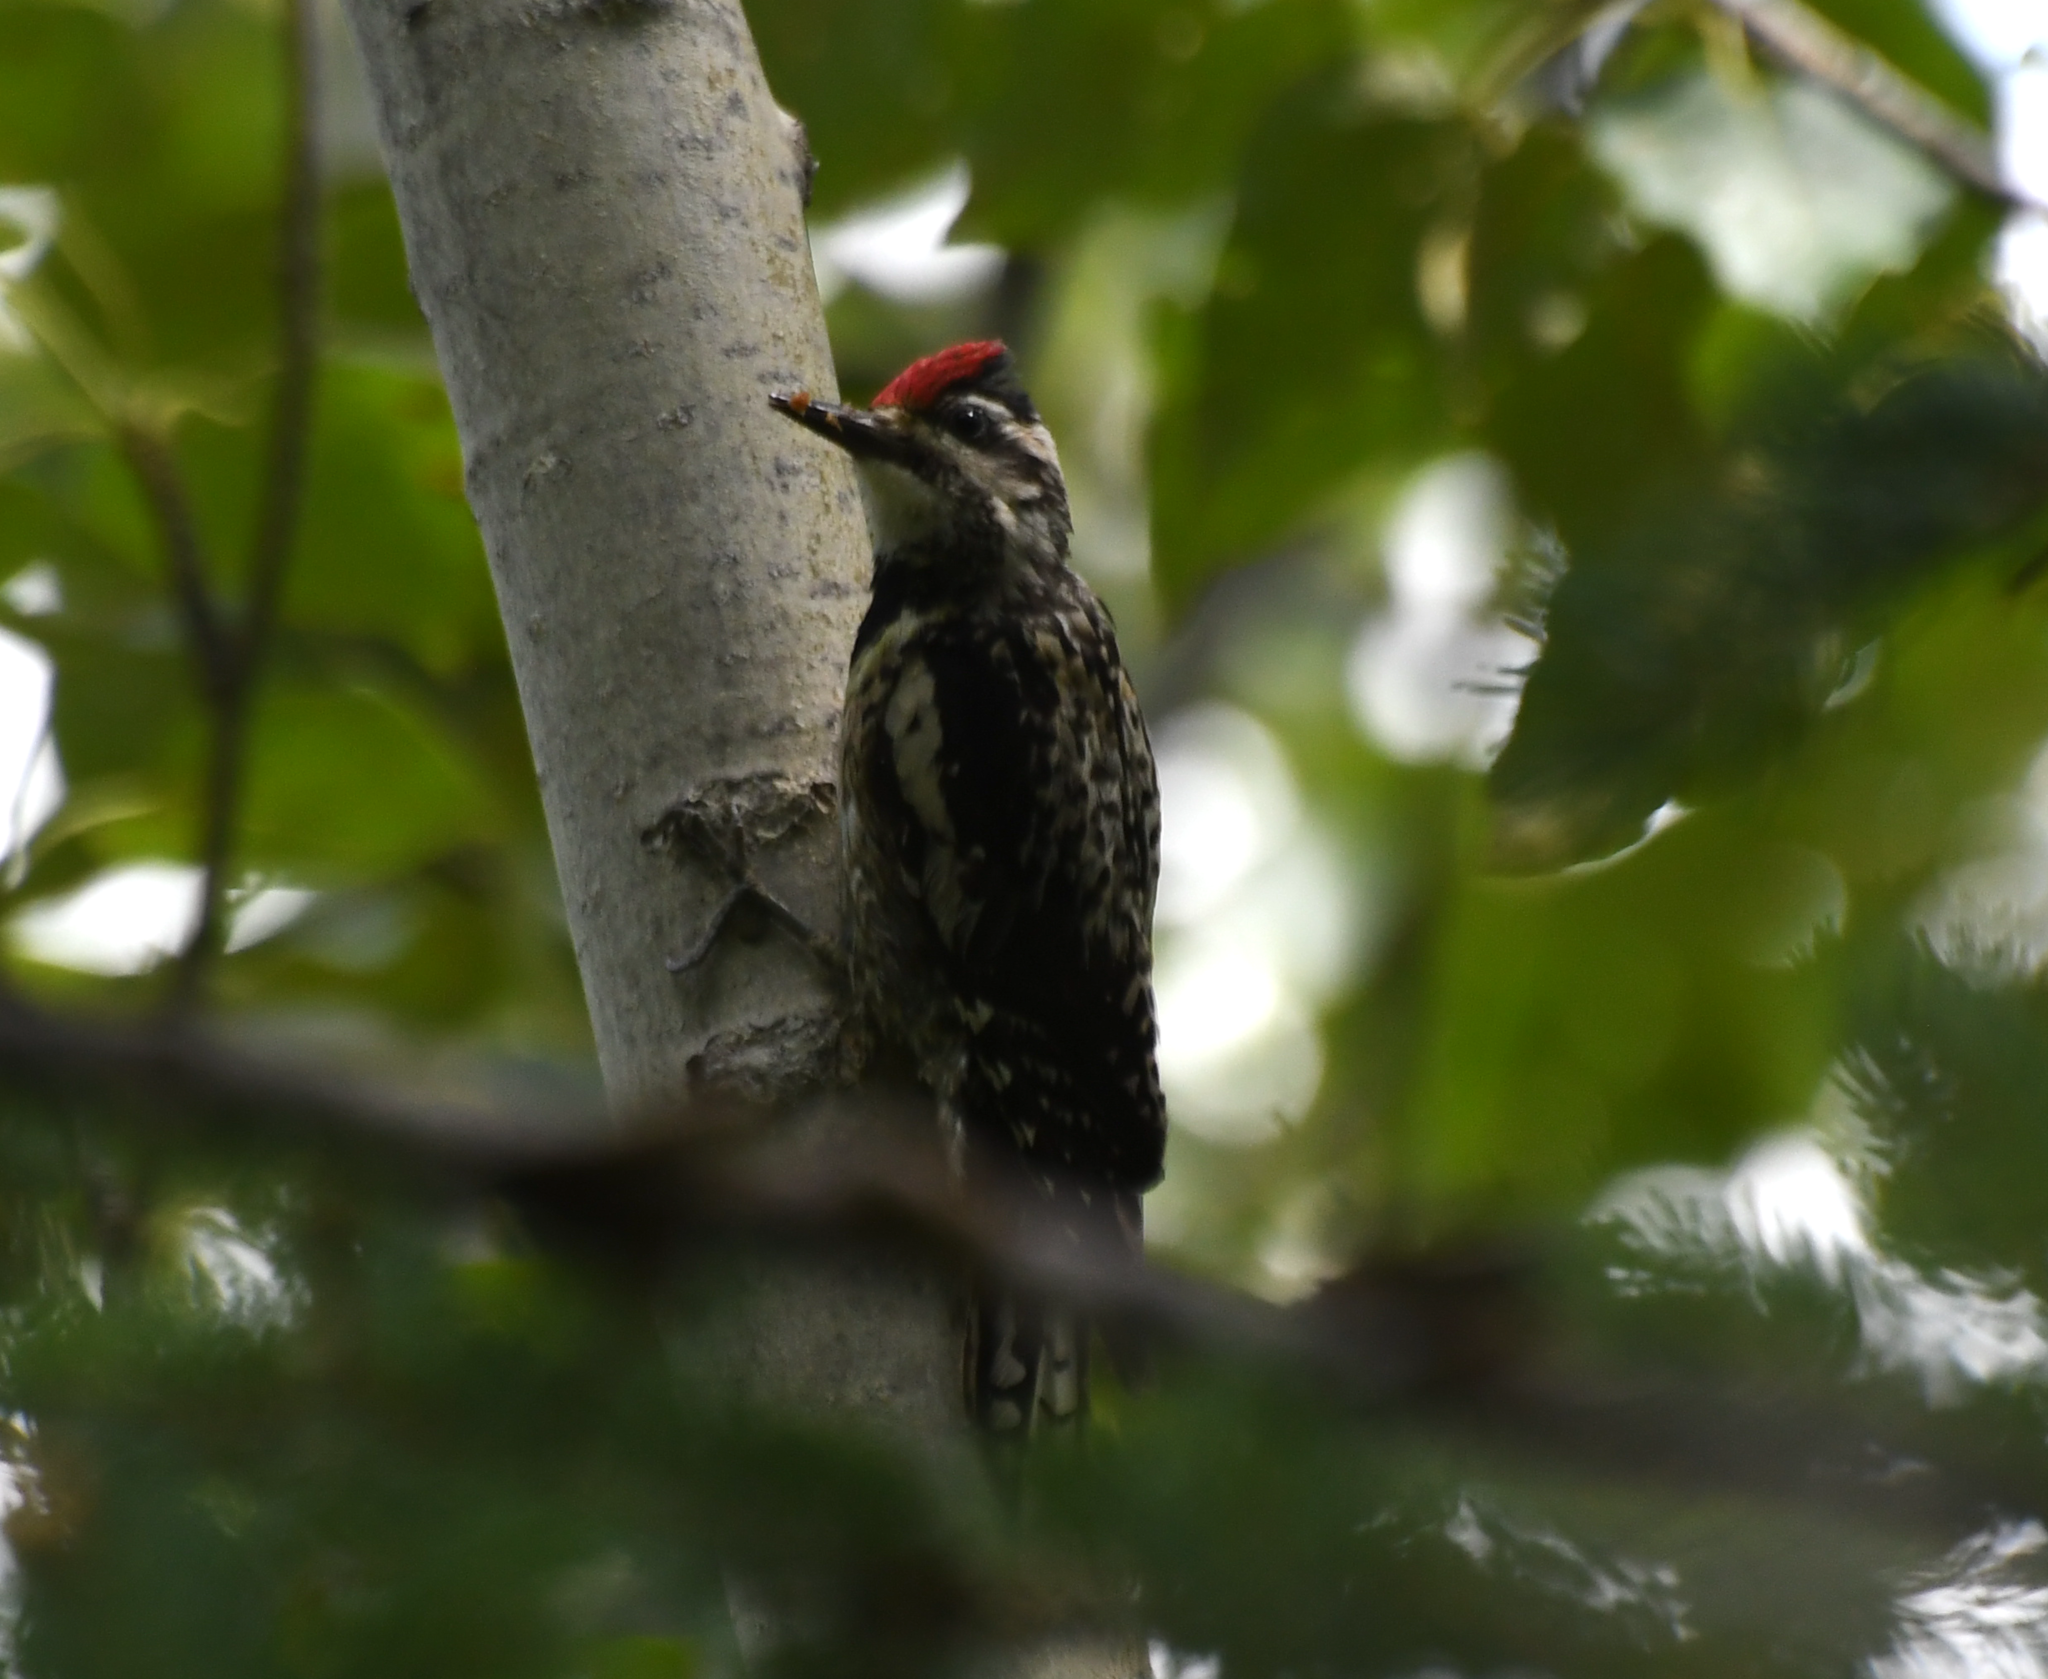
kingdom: Animalia
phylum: Chordata
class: Aves
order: Piciformes
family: Picidae
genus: Sphyrapicus
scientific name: Sphyrapicus varius
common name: Yellow-bellied sapsucker
